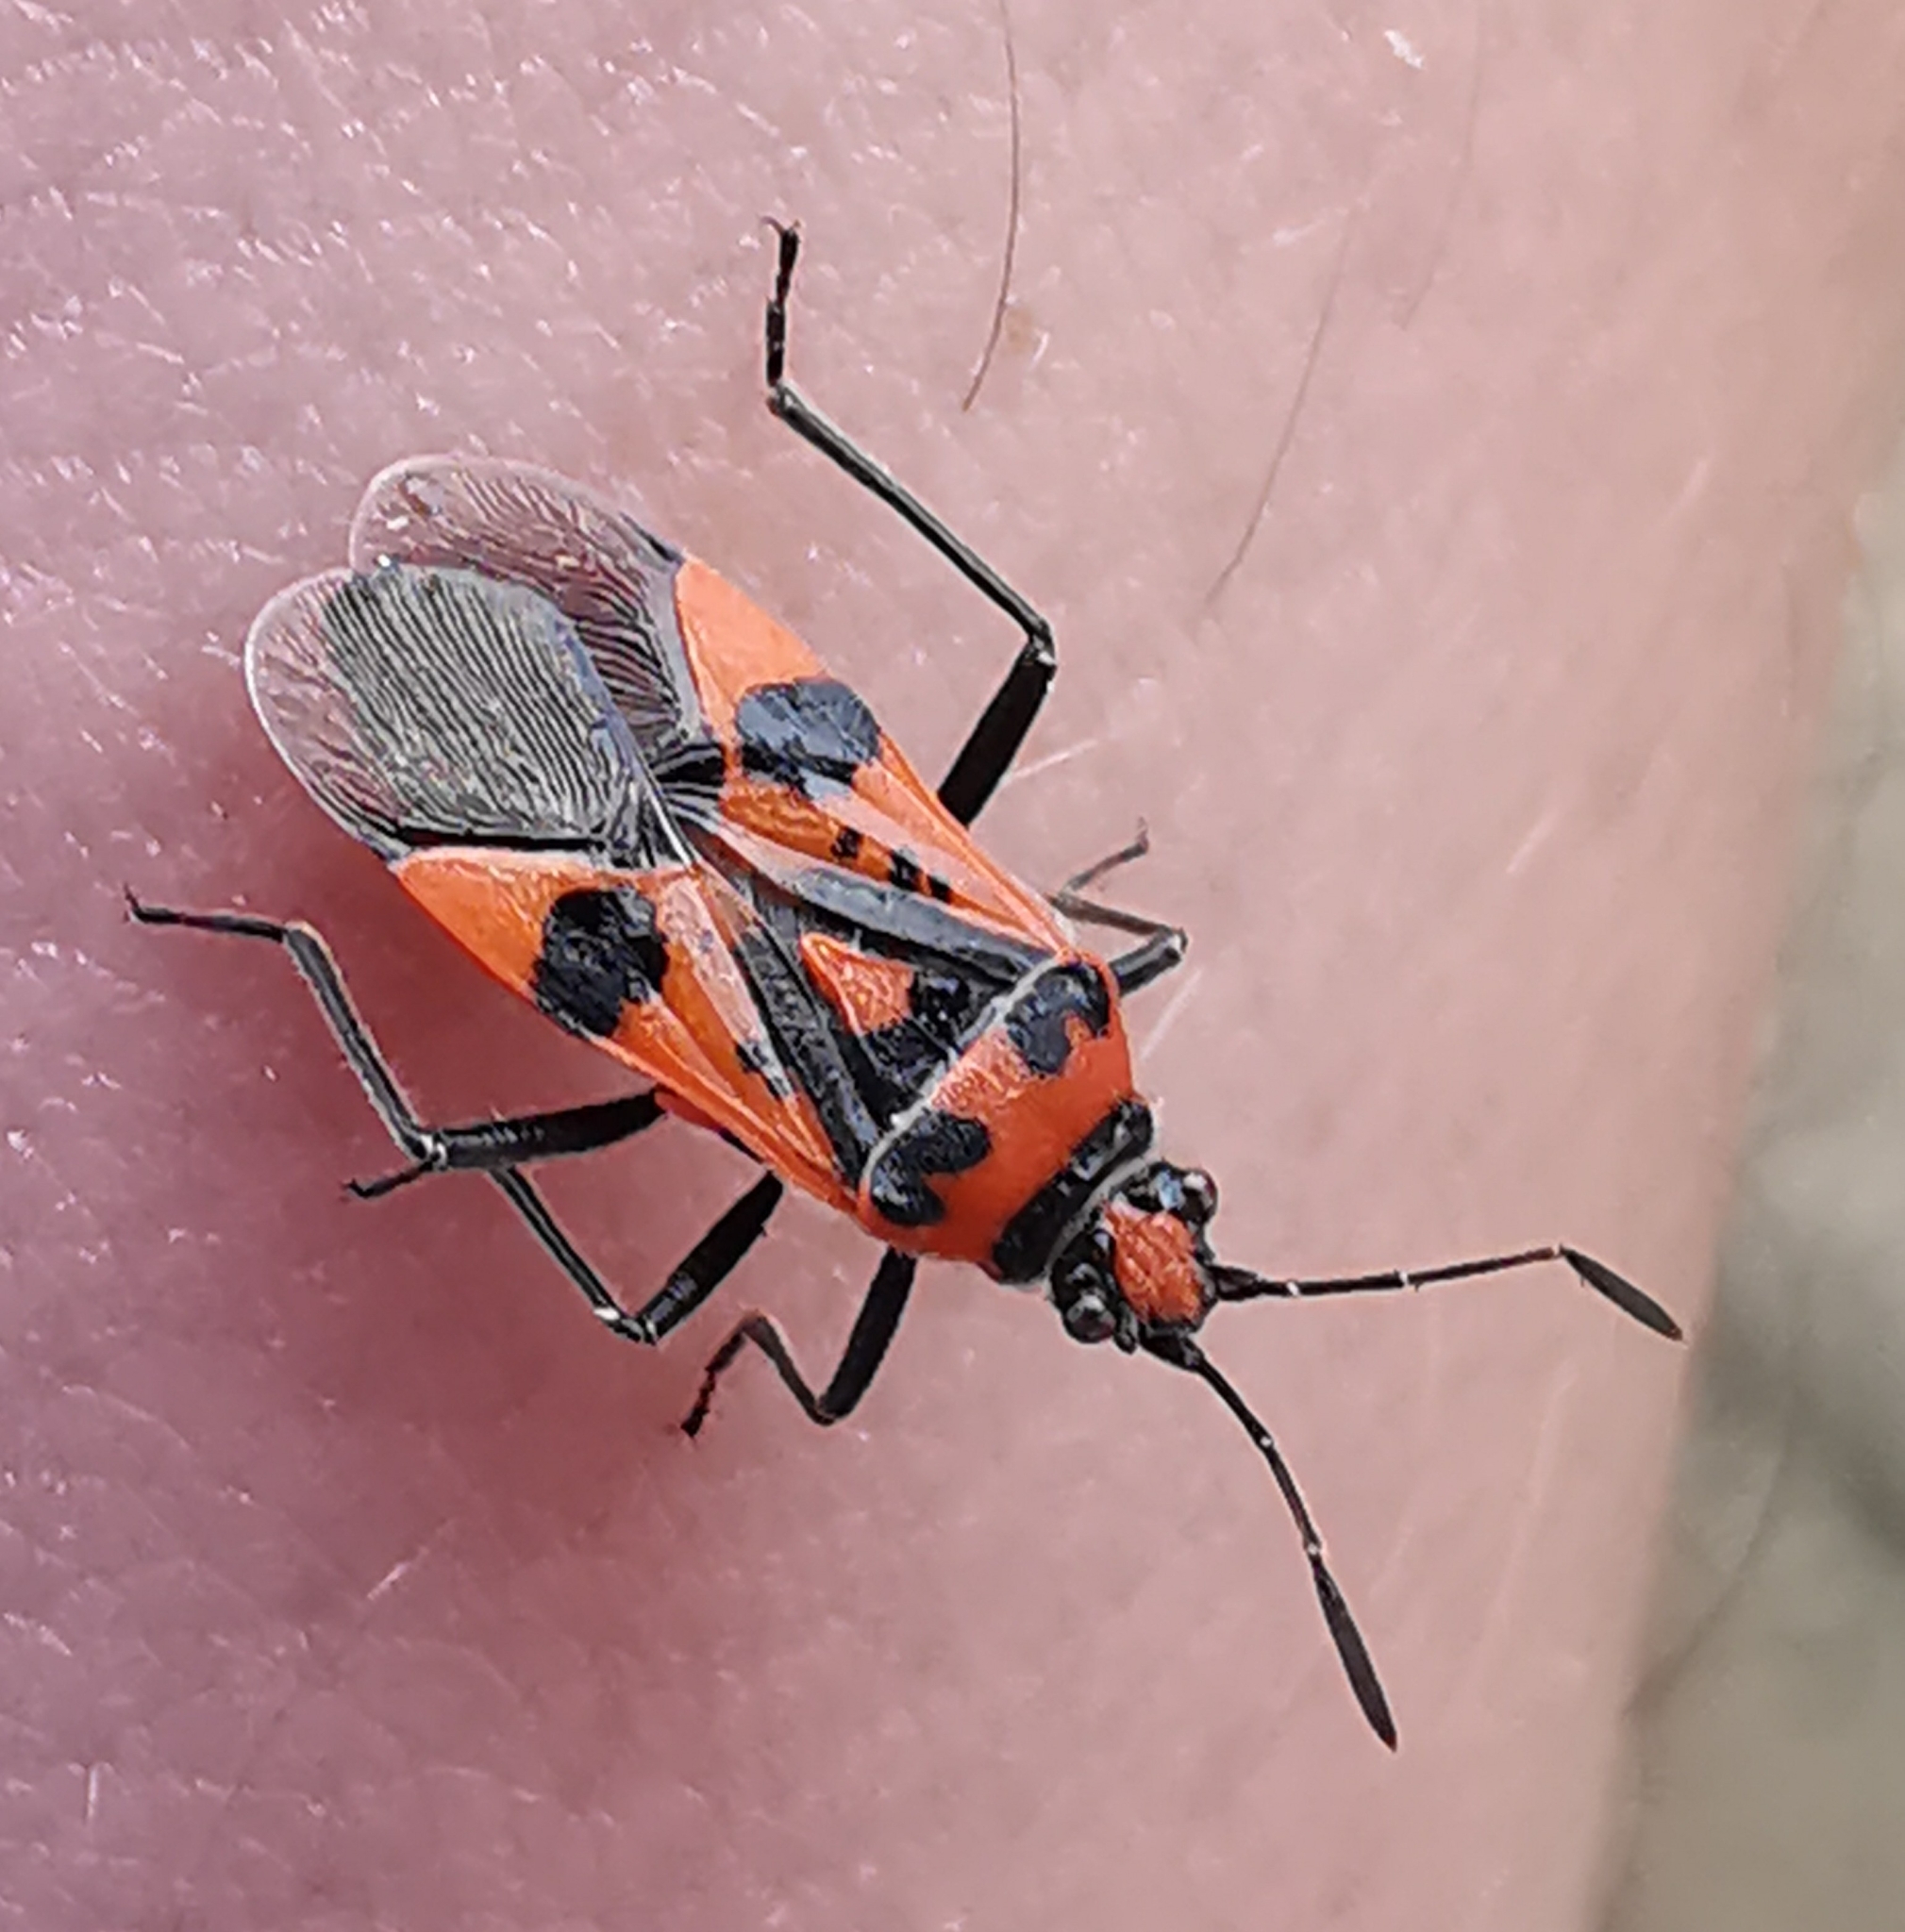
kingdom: Animalia
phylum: Arthropoda
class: Insecta
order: Hemiptera
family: Rhopalidae
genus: Corizus
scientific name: Corizus hyoscyami
